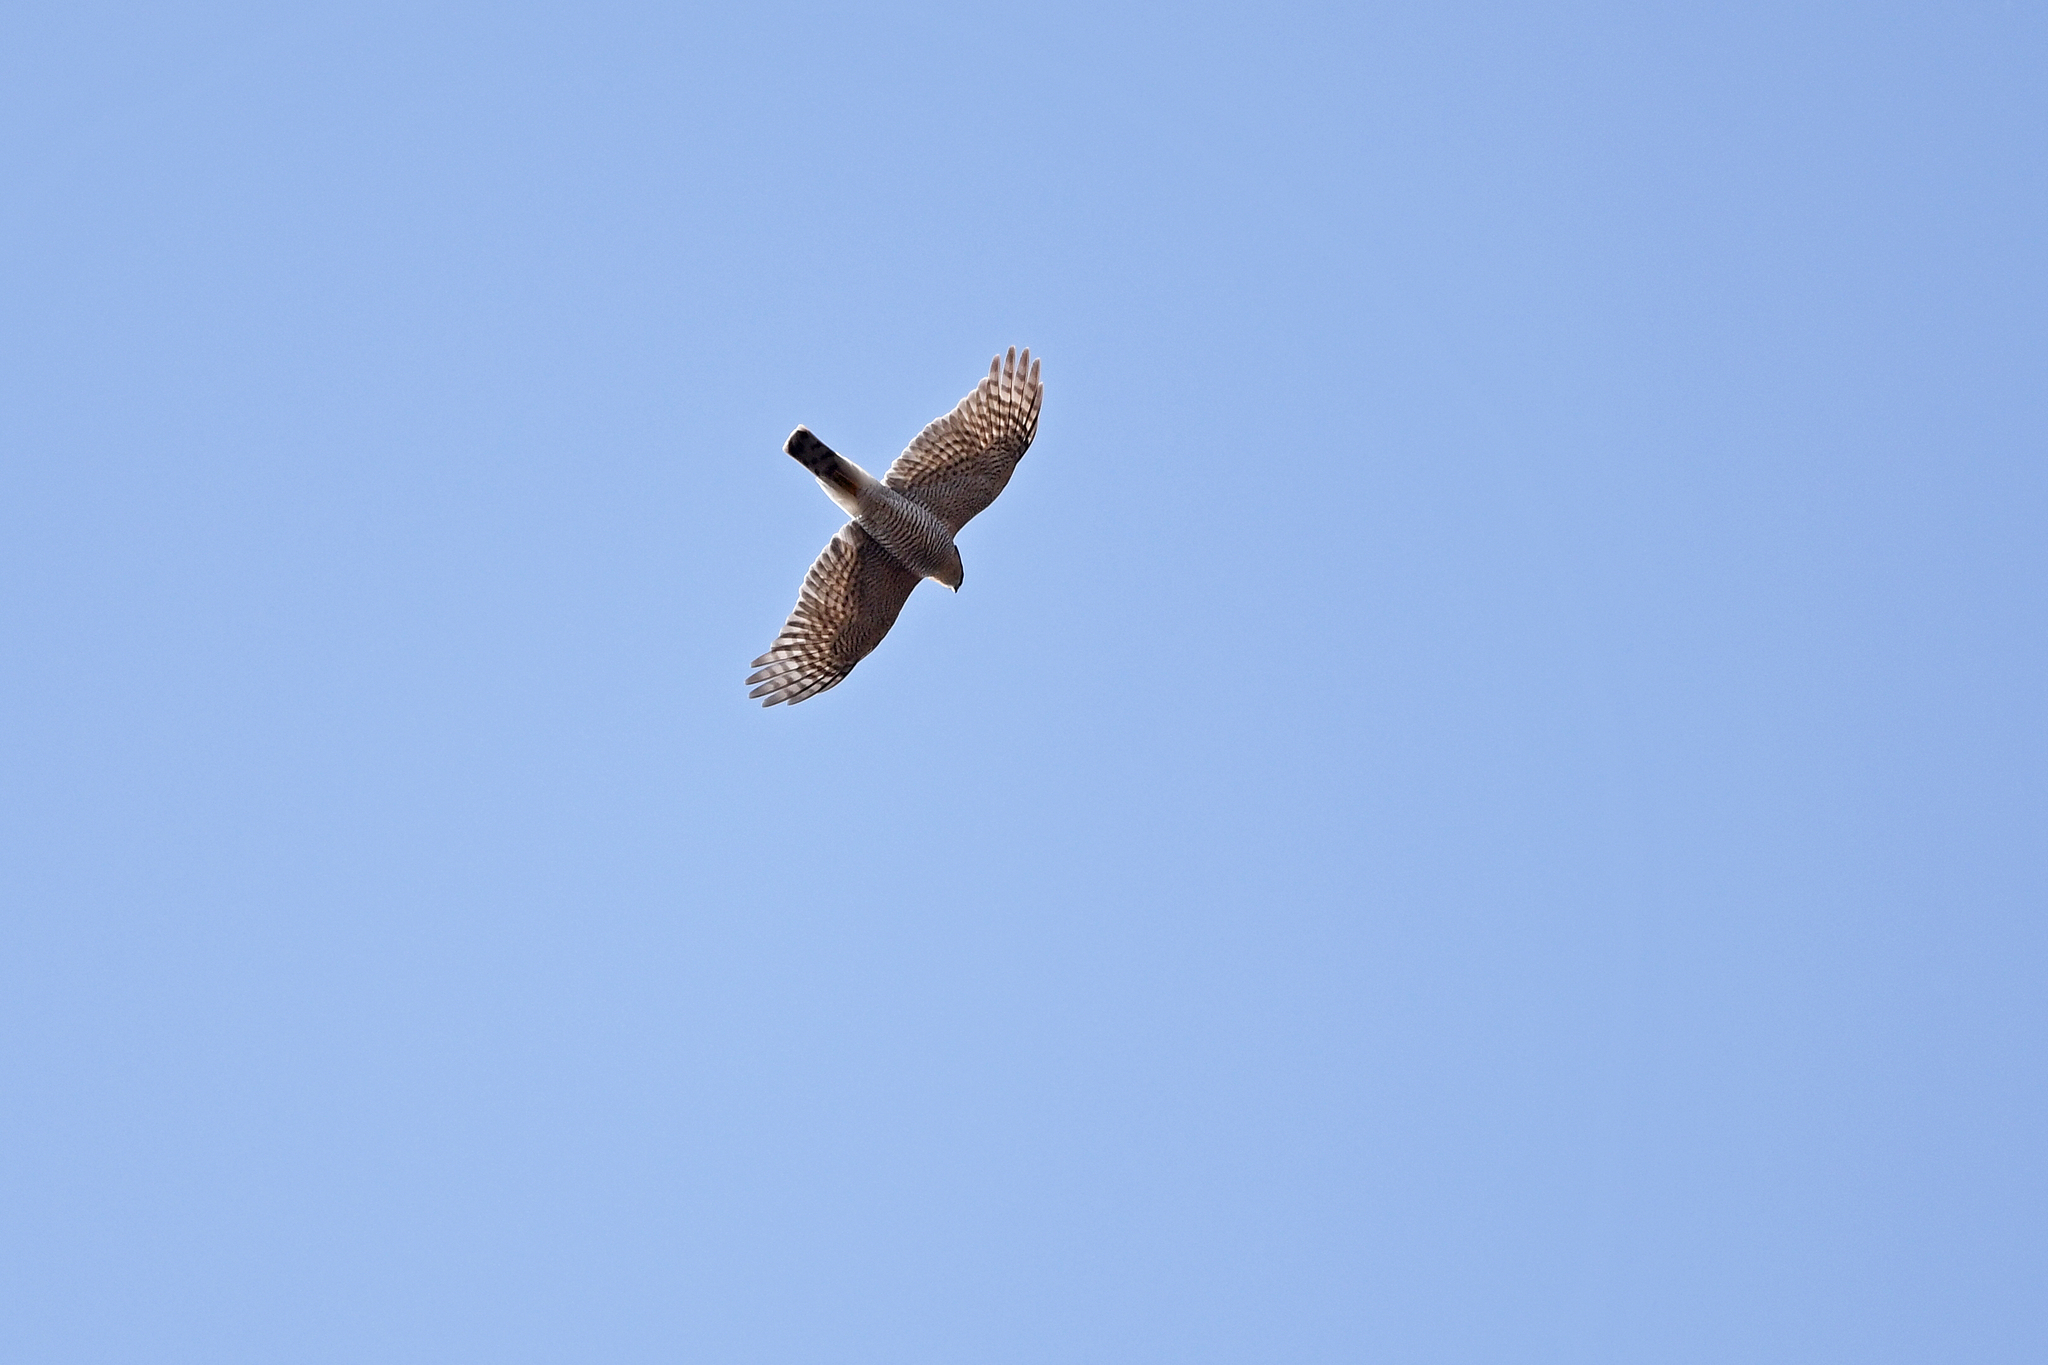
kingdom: Animalia
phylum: Chordata
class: Aves
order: Accipitriformes
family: Accipitridae
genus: Accipiter
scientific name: Accipiter nisus
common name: Eurasian sparrowhawk
